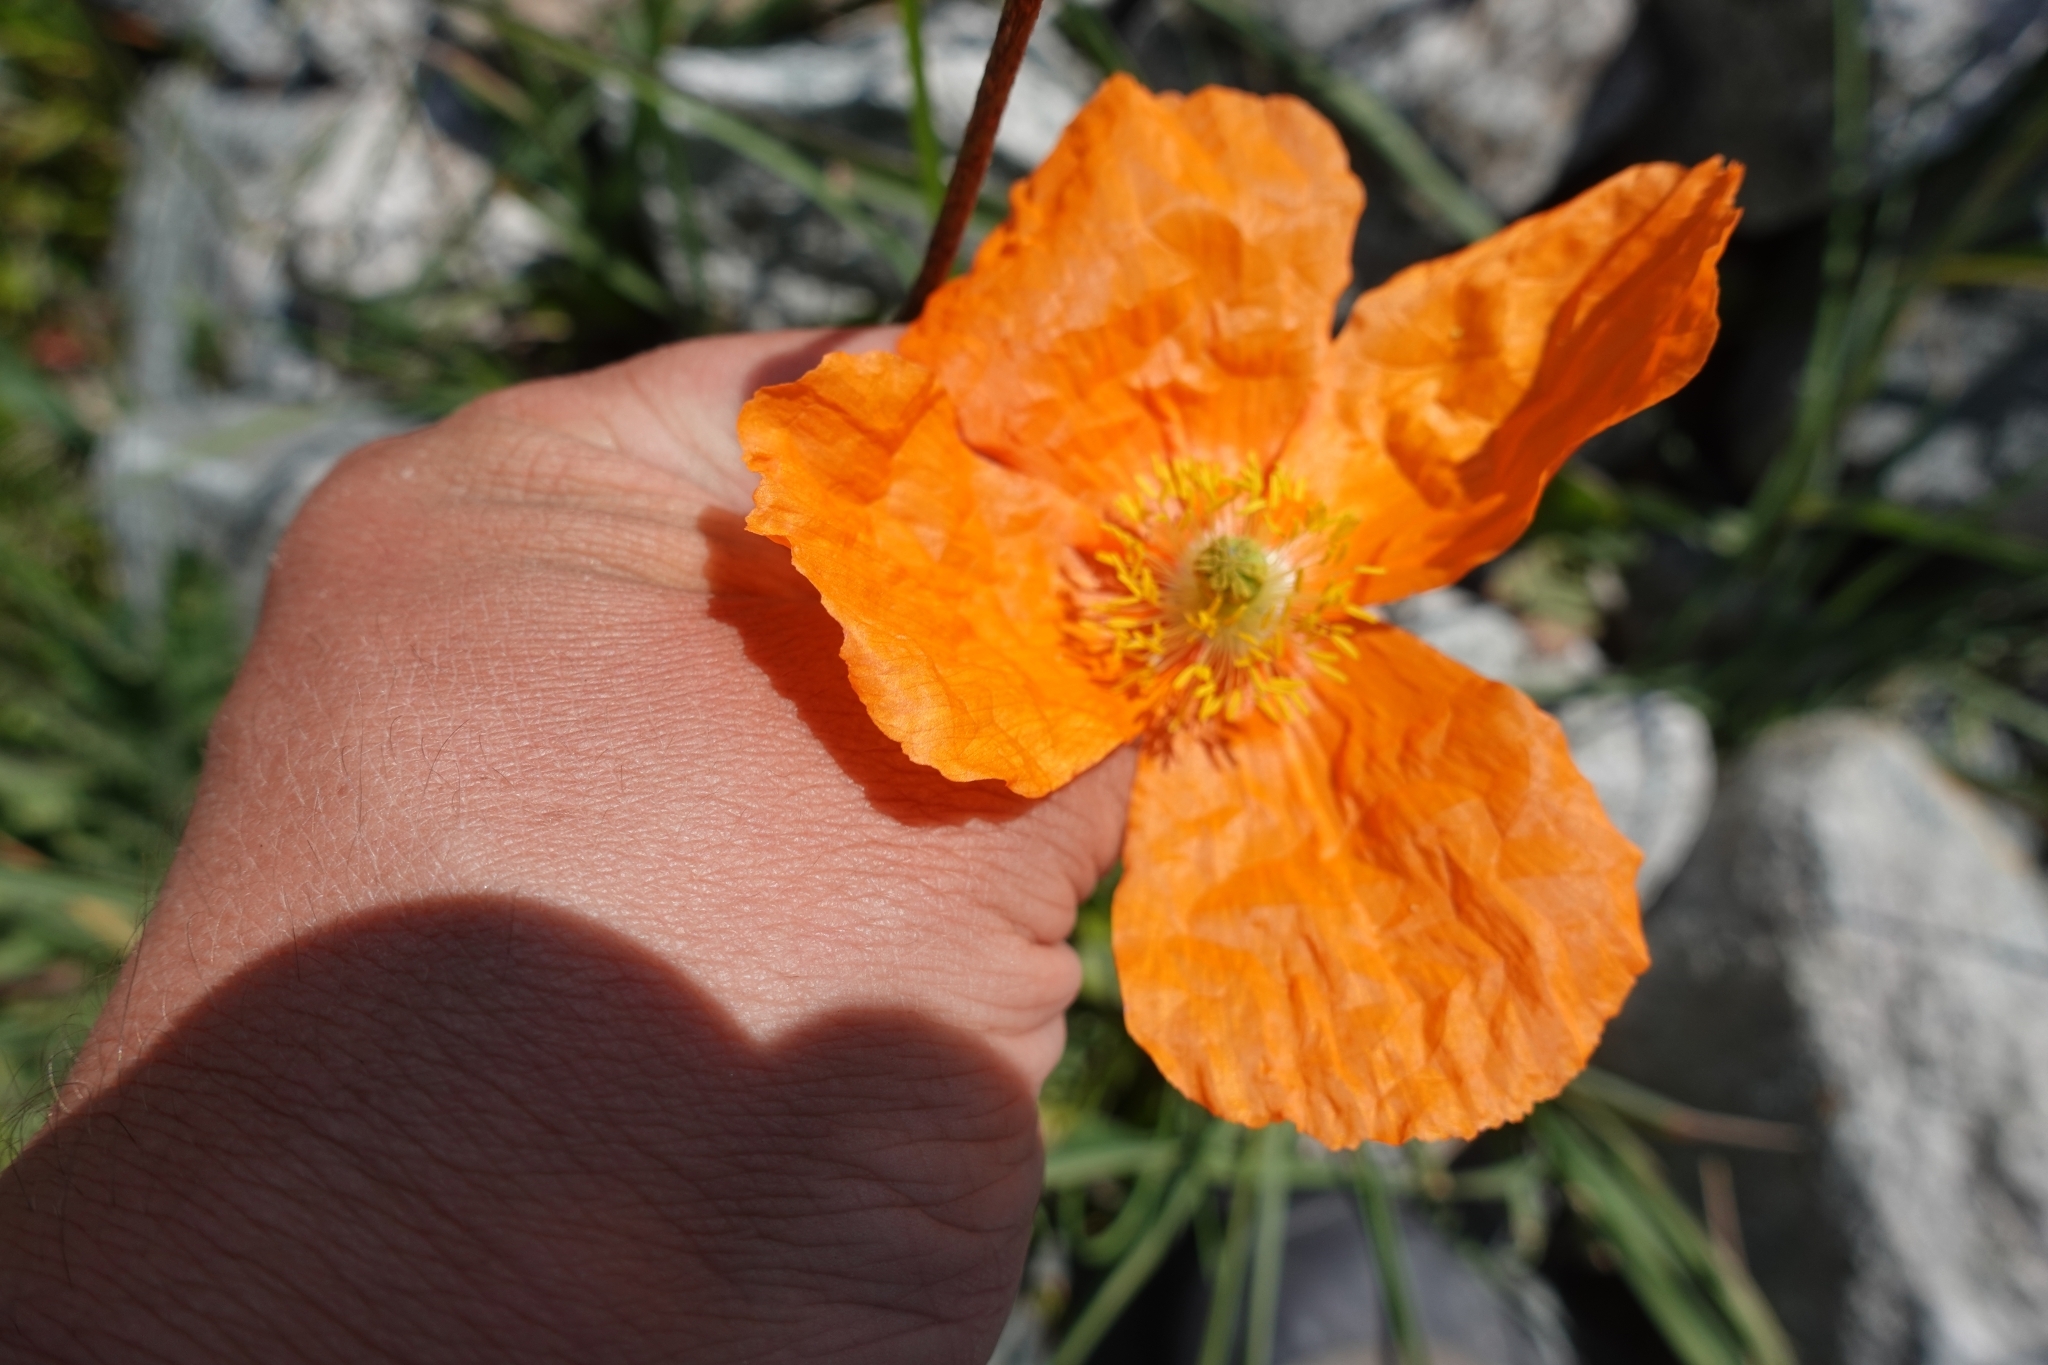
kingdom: Plantae
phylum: Tracheophyta
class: Magnoliopsida
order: Ranunculales
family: Papaveraceae
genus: Papaver
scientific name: Papaver oreophilum
